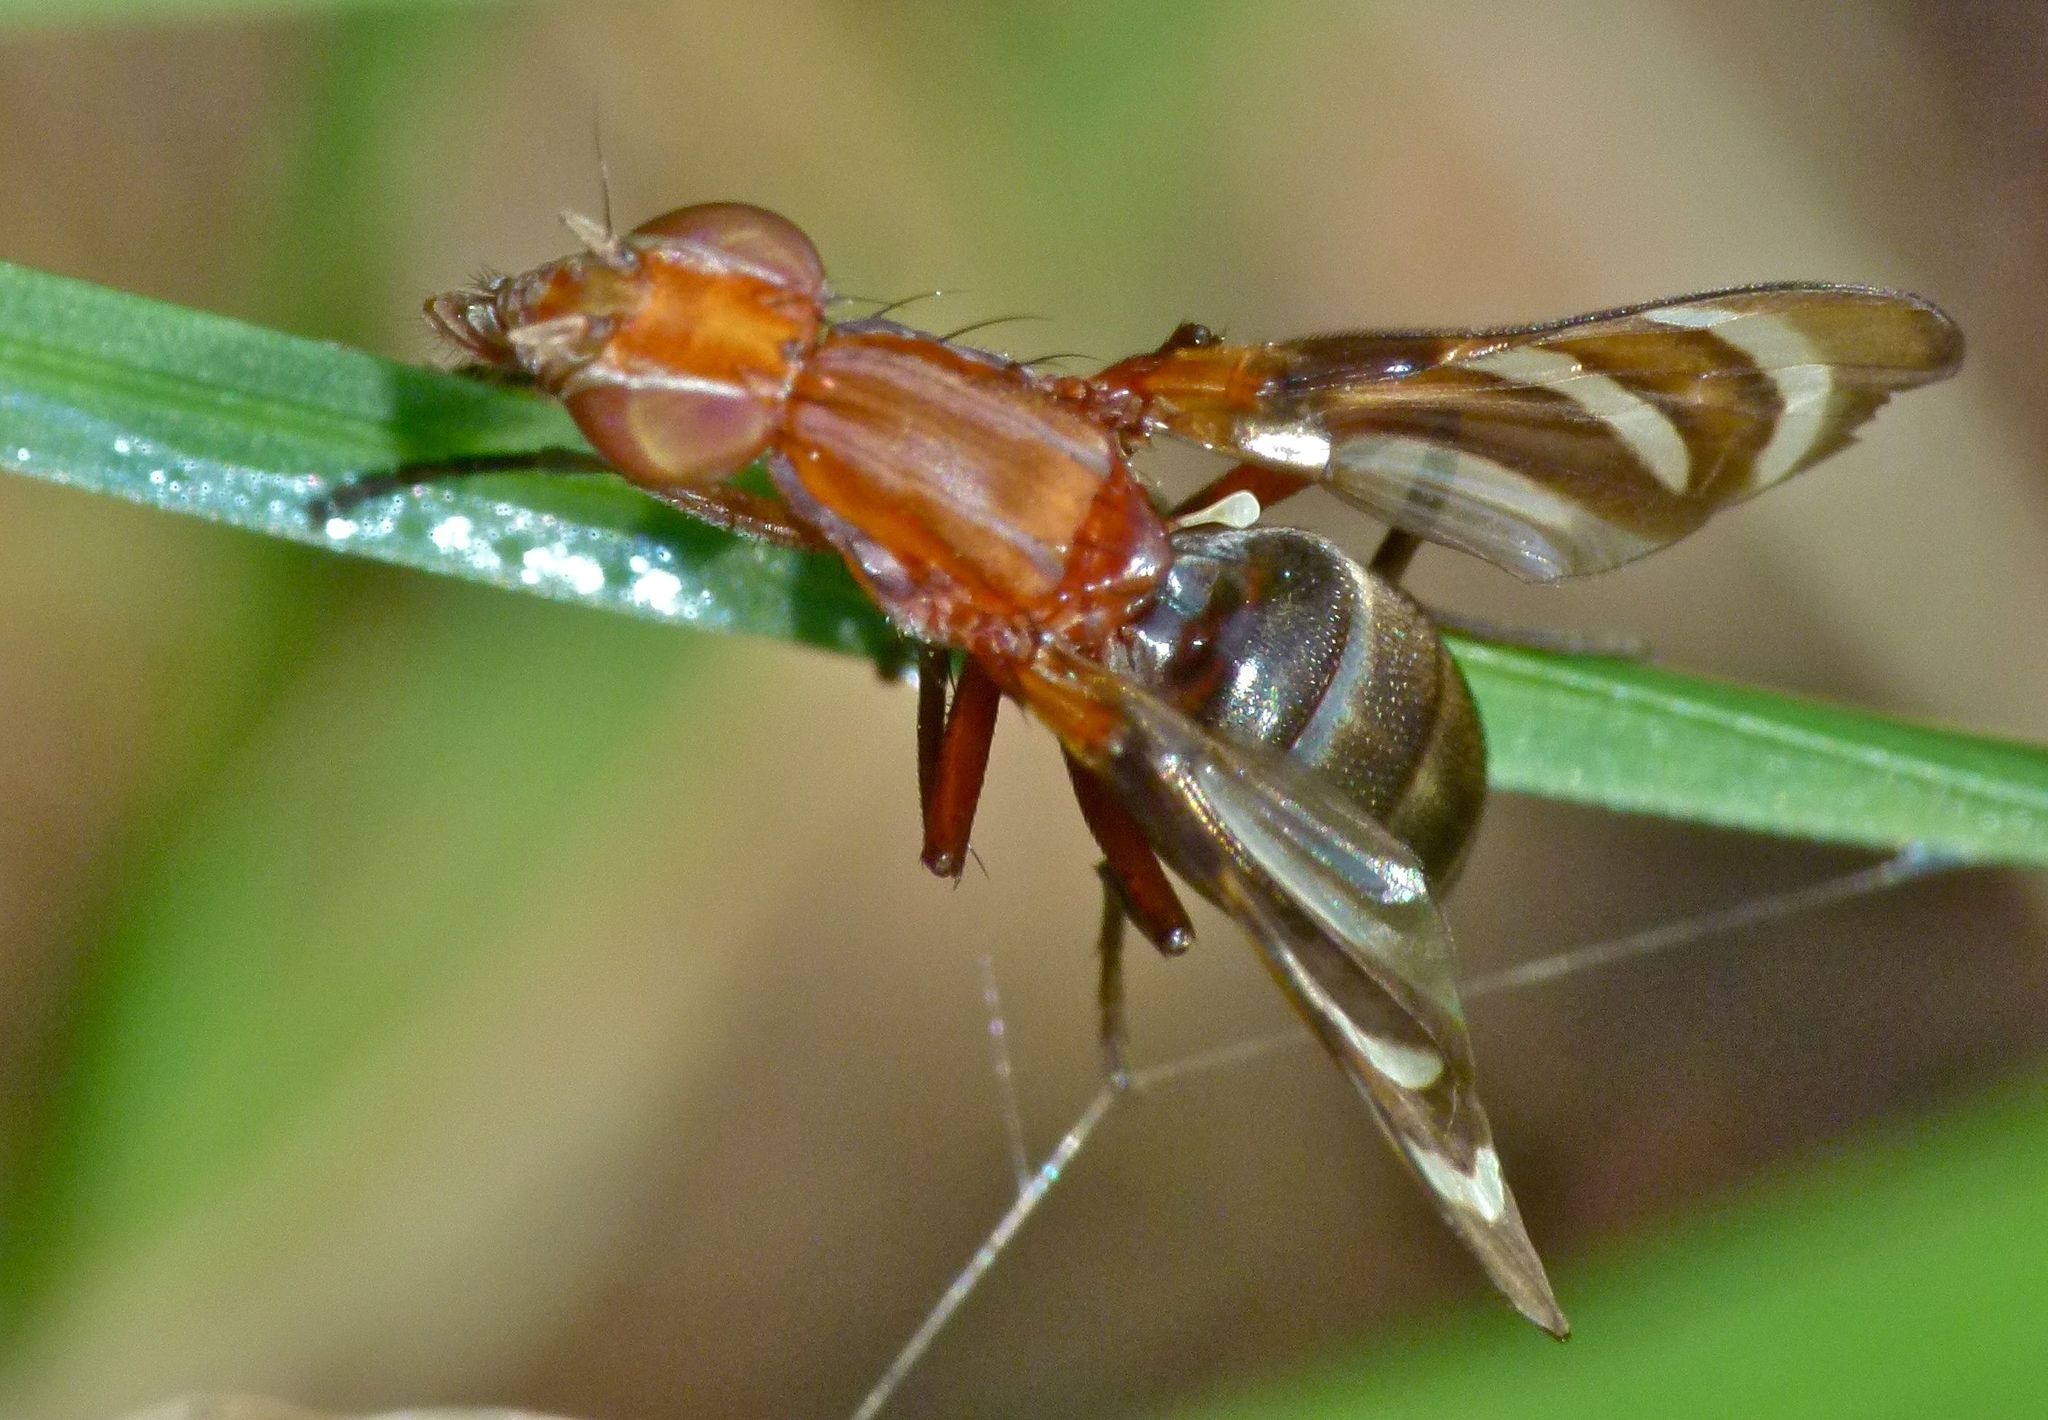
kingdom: Animalia
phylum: Arthropoda
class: Insecta
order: Diptera
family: Ulidiidae
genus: Tritoxa
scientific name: Tritoxa incurva
